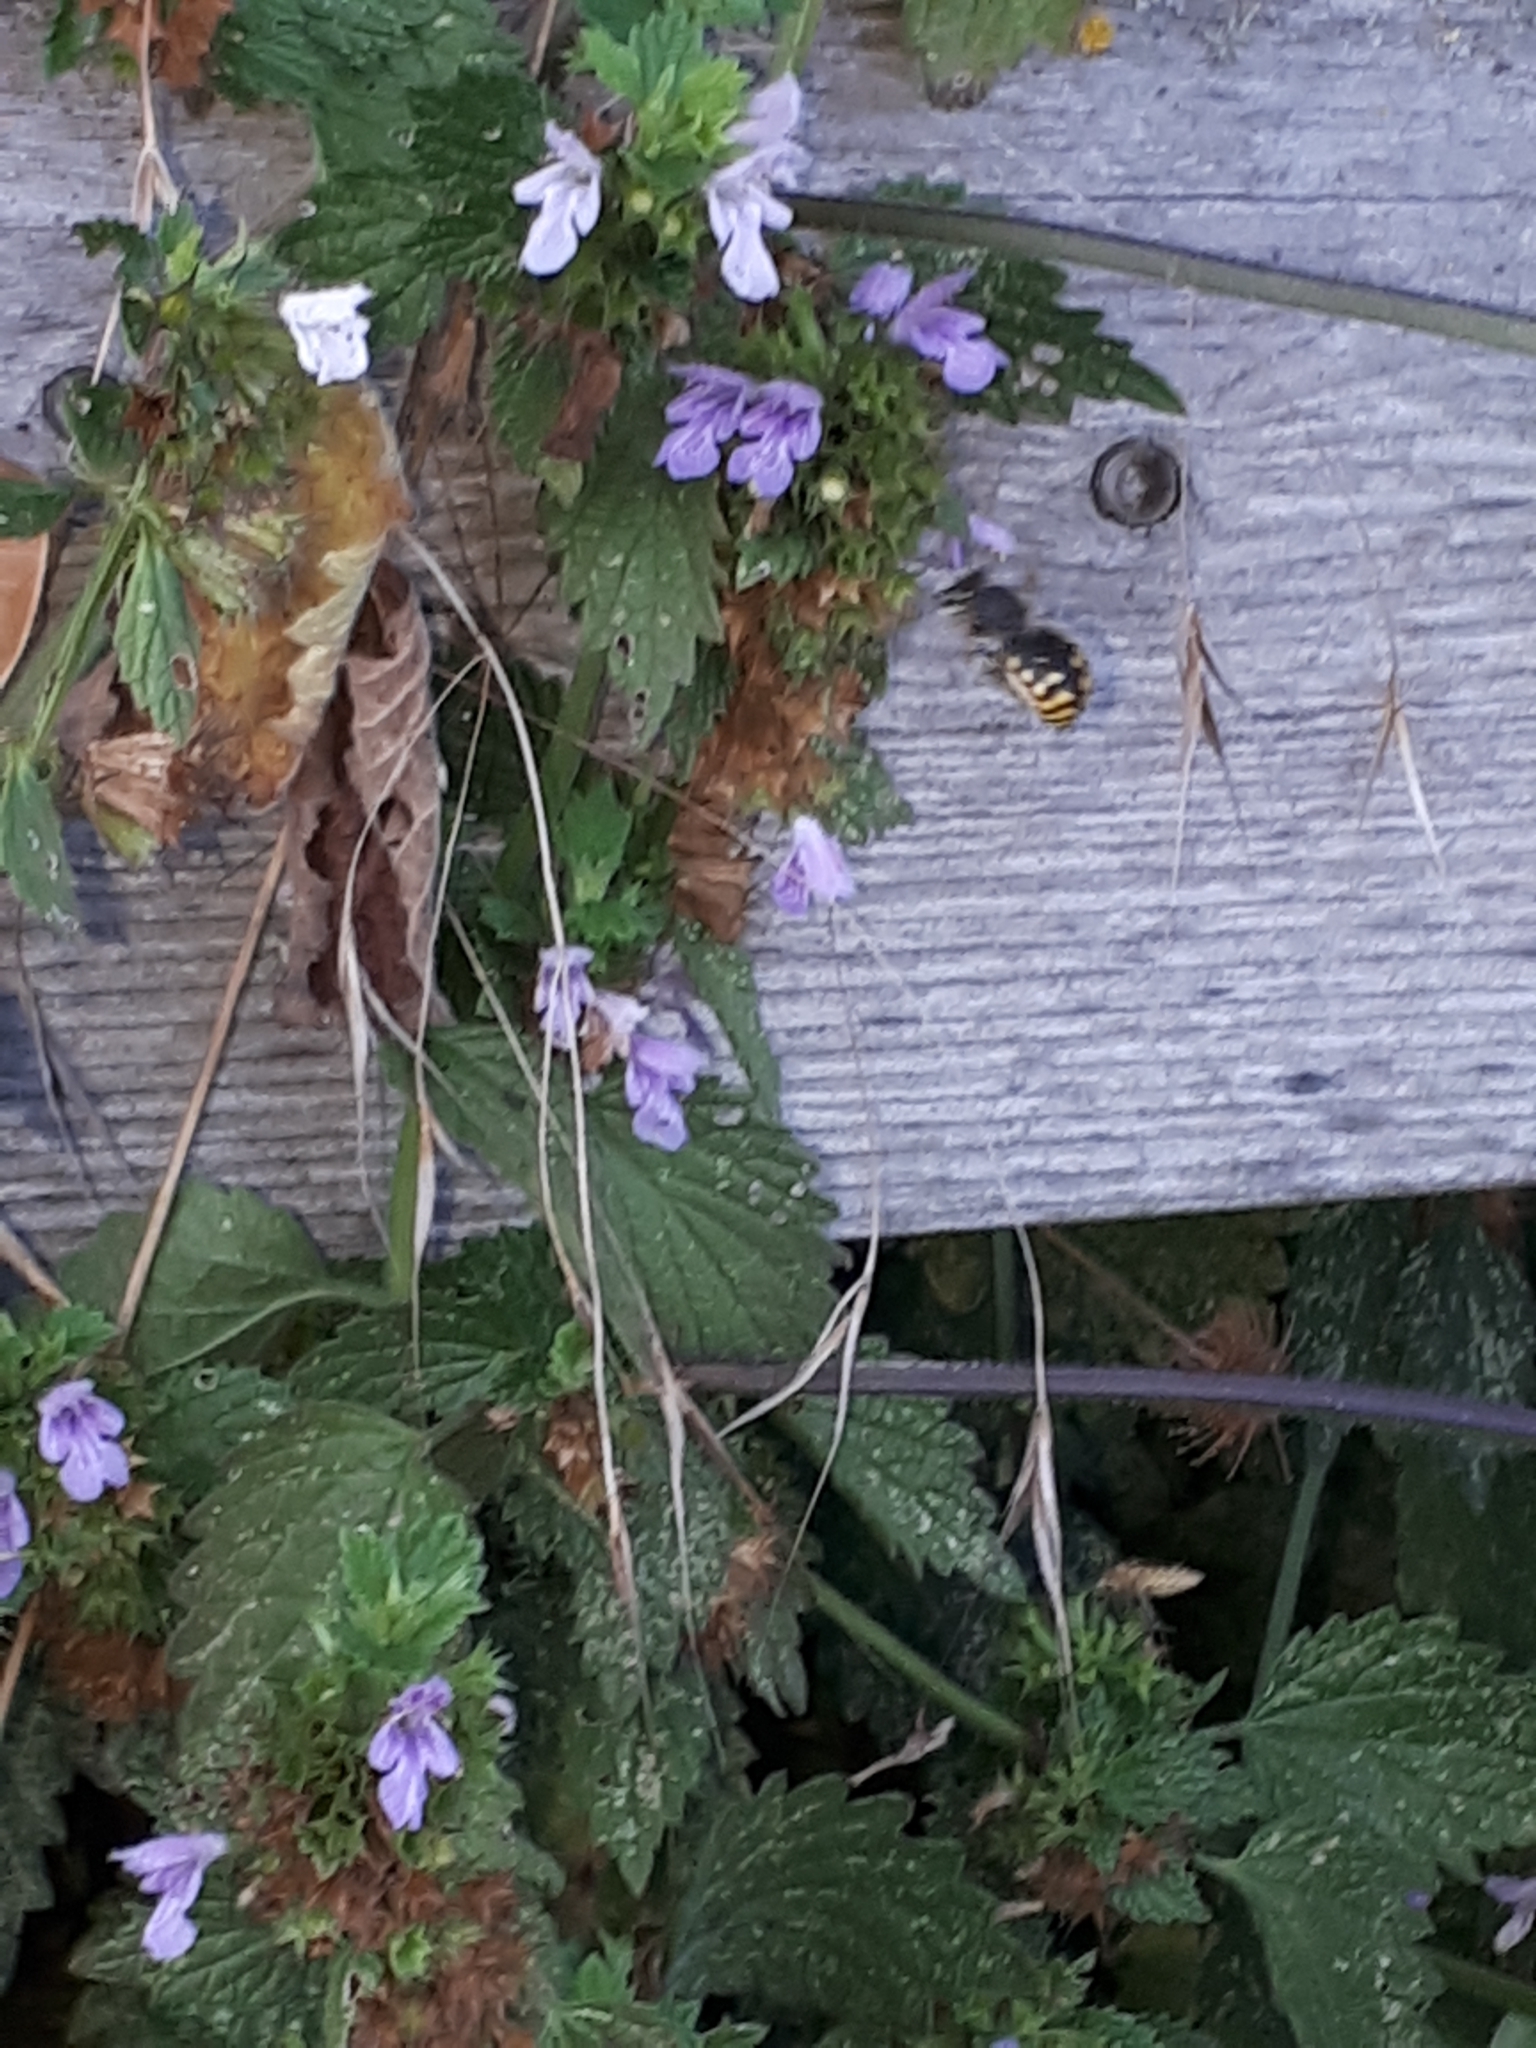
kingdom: Animalia
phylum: Arthropoda
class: Insecta
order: Hymenoptera
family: Megachilidae
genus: Anthidium
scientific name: Anthidium manicatum
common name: Wool carder bee
